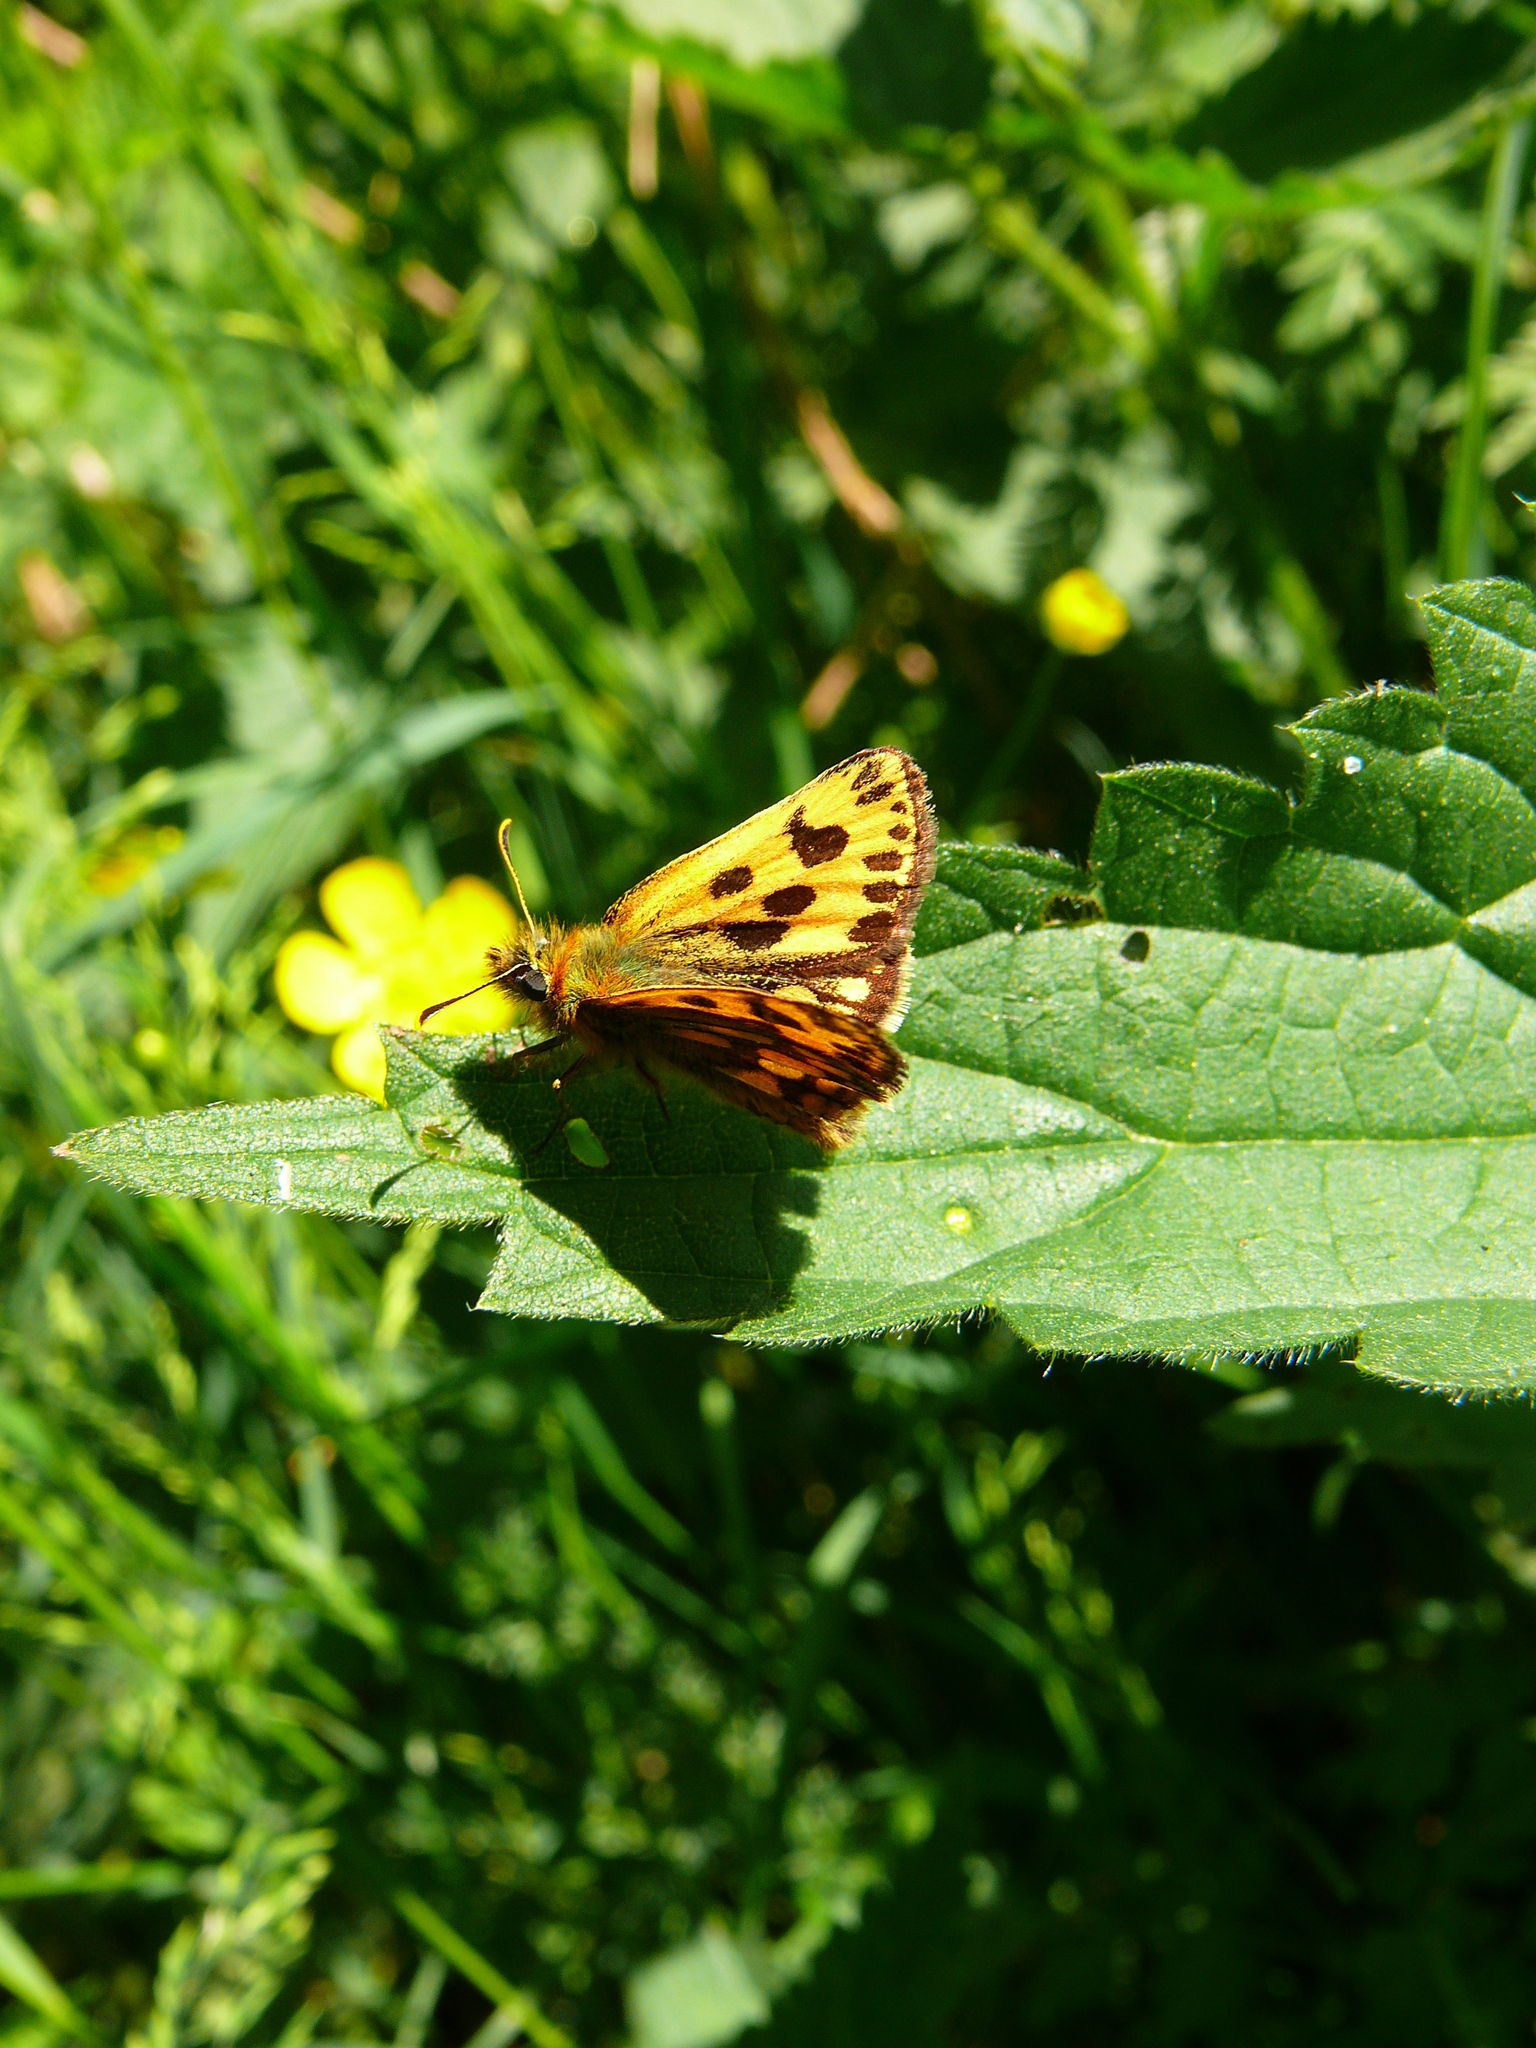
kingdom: Animalia
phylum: Arthropoda
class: Insecta
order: Lepidoptera
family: Hesperiidae
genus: Carterocephalus
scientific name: Carterocephalus silvicola
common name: Northern chequered skipper
